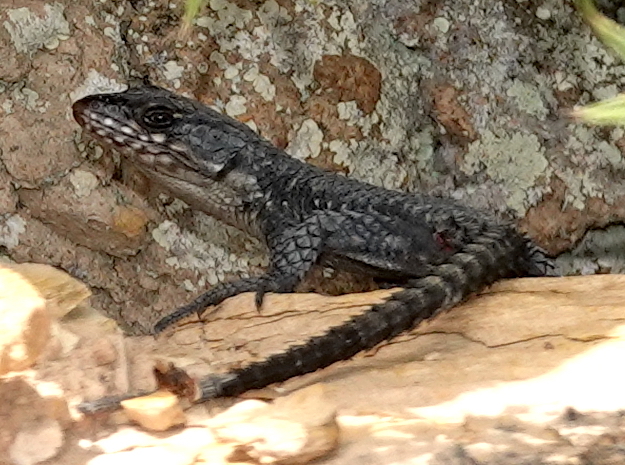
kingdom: Animalia
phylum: Chordata
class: Squamata
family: Cordylidae
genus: Cordylus
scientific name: Cordylus niger
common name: Black girdled lizard
